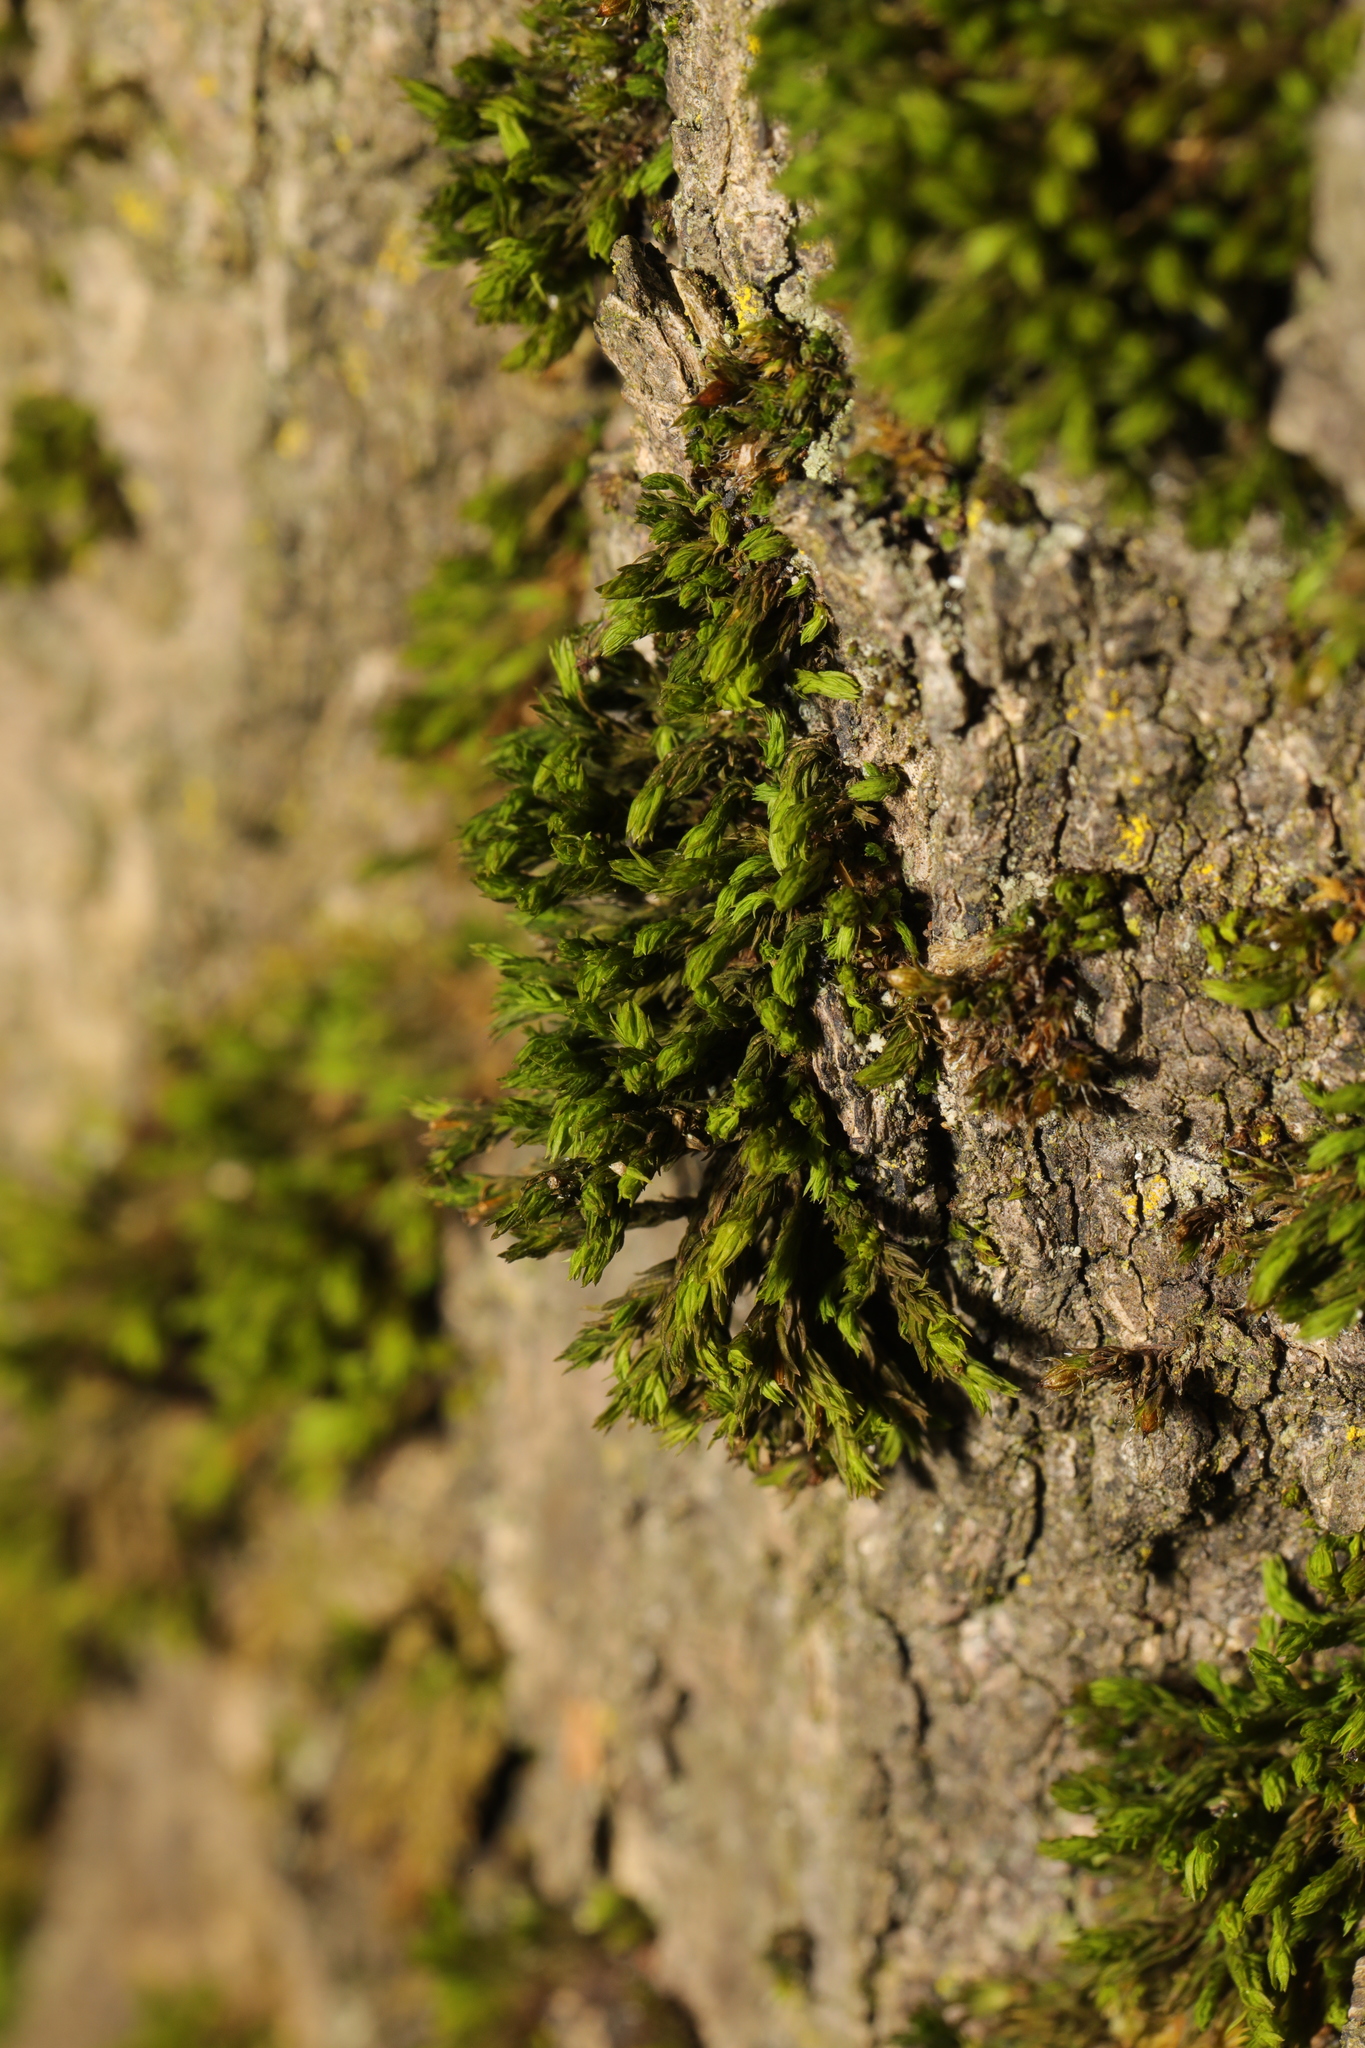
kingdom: Plantae
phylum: Bryophyta
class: Bryopsida
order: Orthotrichales
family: Orthotrichaceae
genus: Lewinskya
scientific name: Lewinskya affinis
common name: Wood bristle-moss
